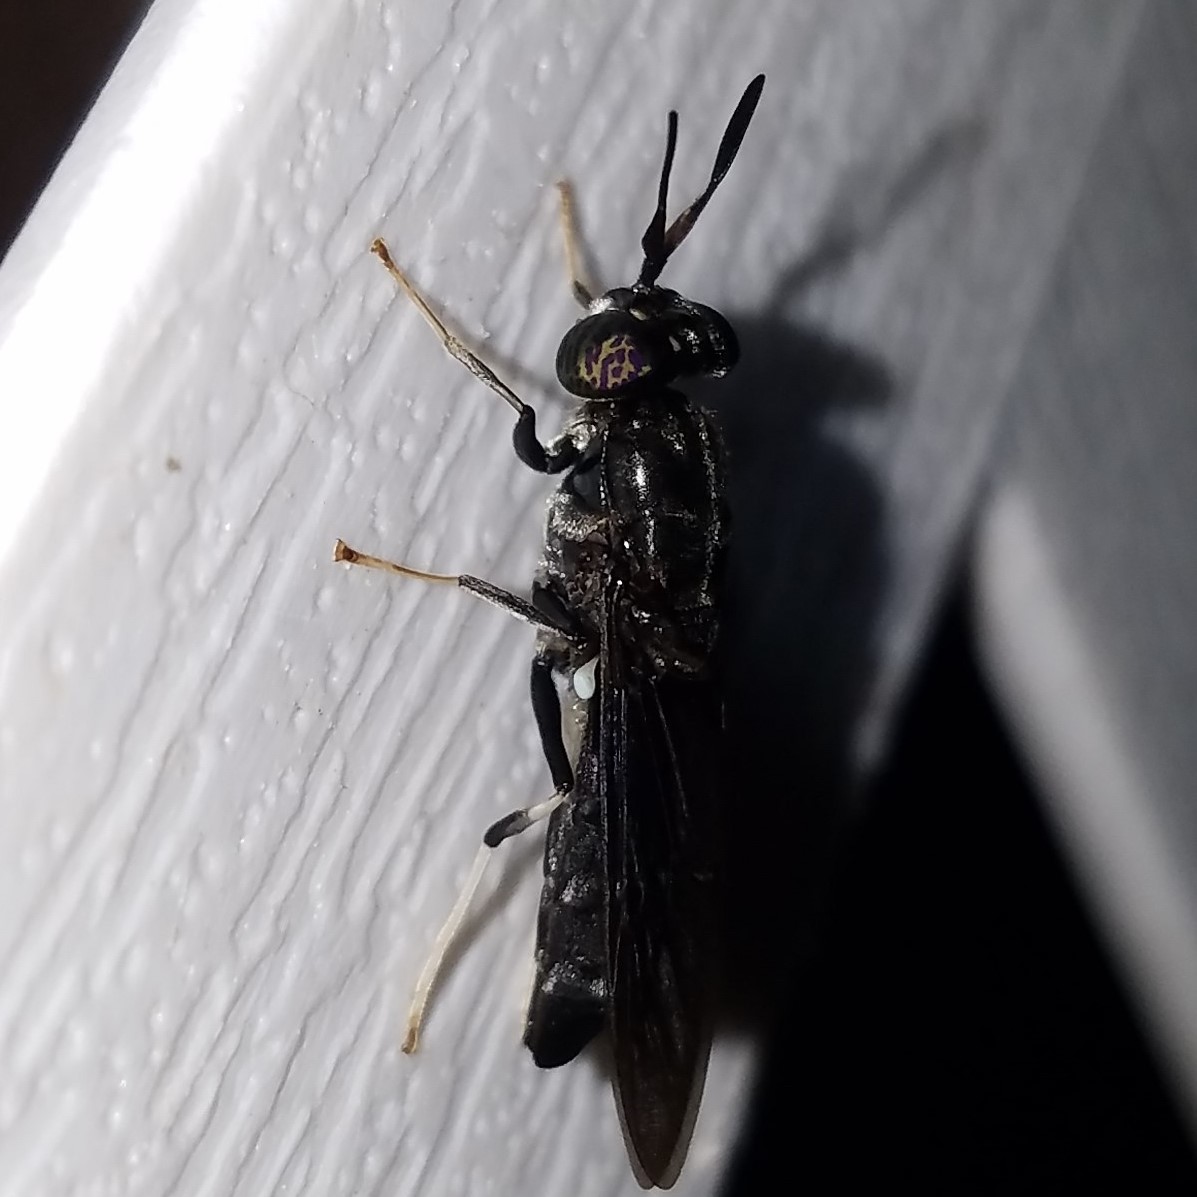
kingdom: Animalia
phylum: Arthropoda
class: Insecta
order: Diptera
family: Stratiomyidae
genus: Hermetia
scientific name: Hermetia illucens
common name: Black soldier fly
